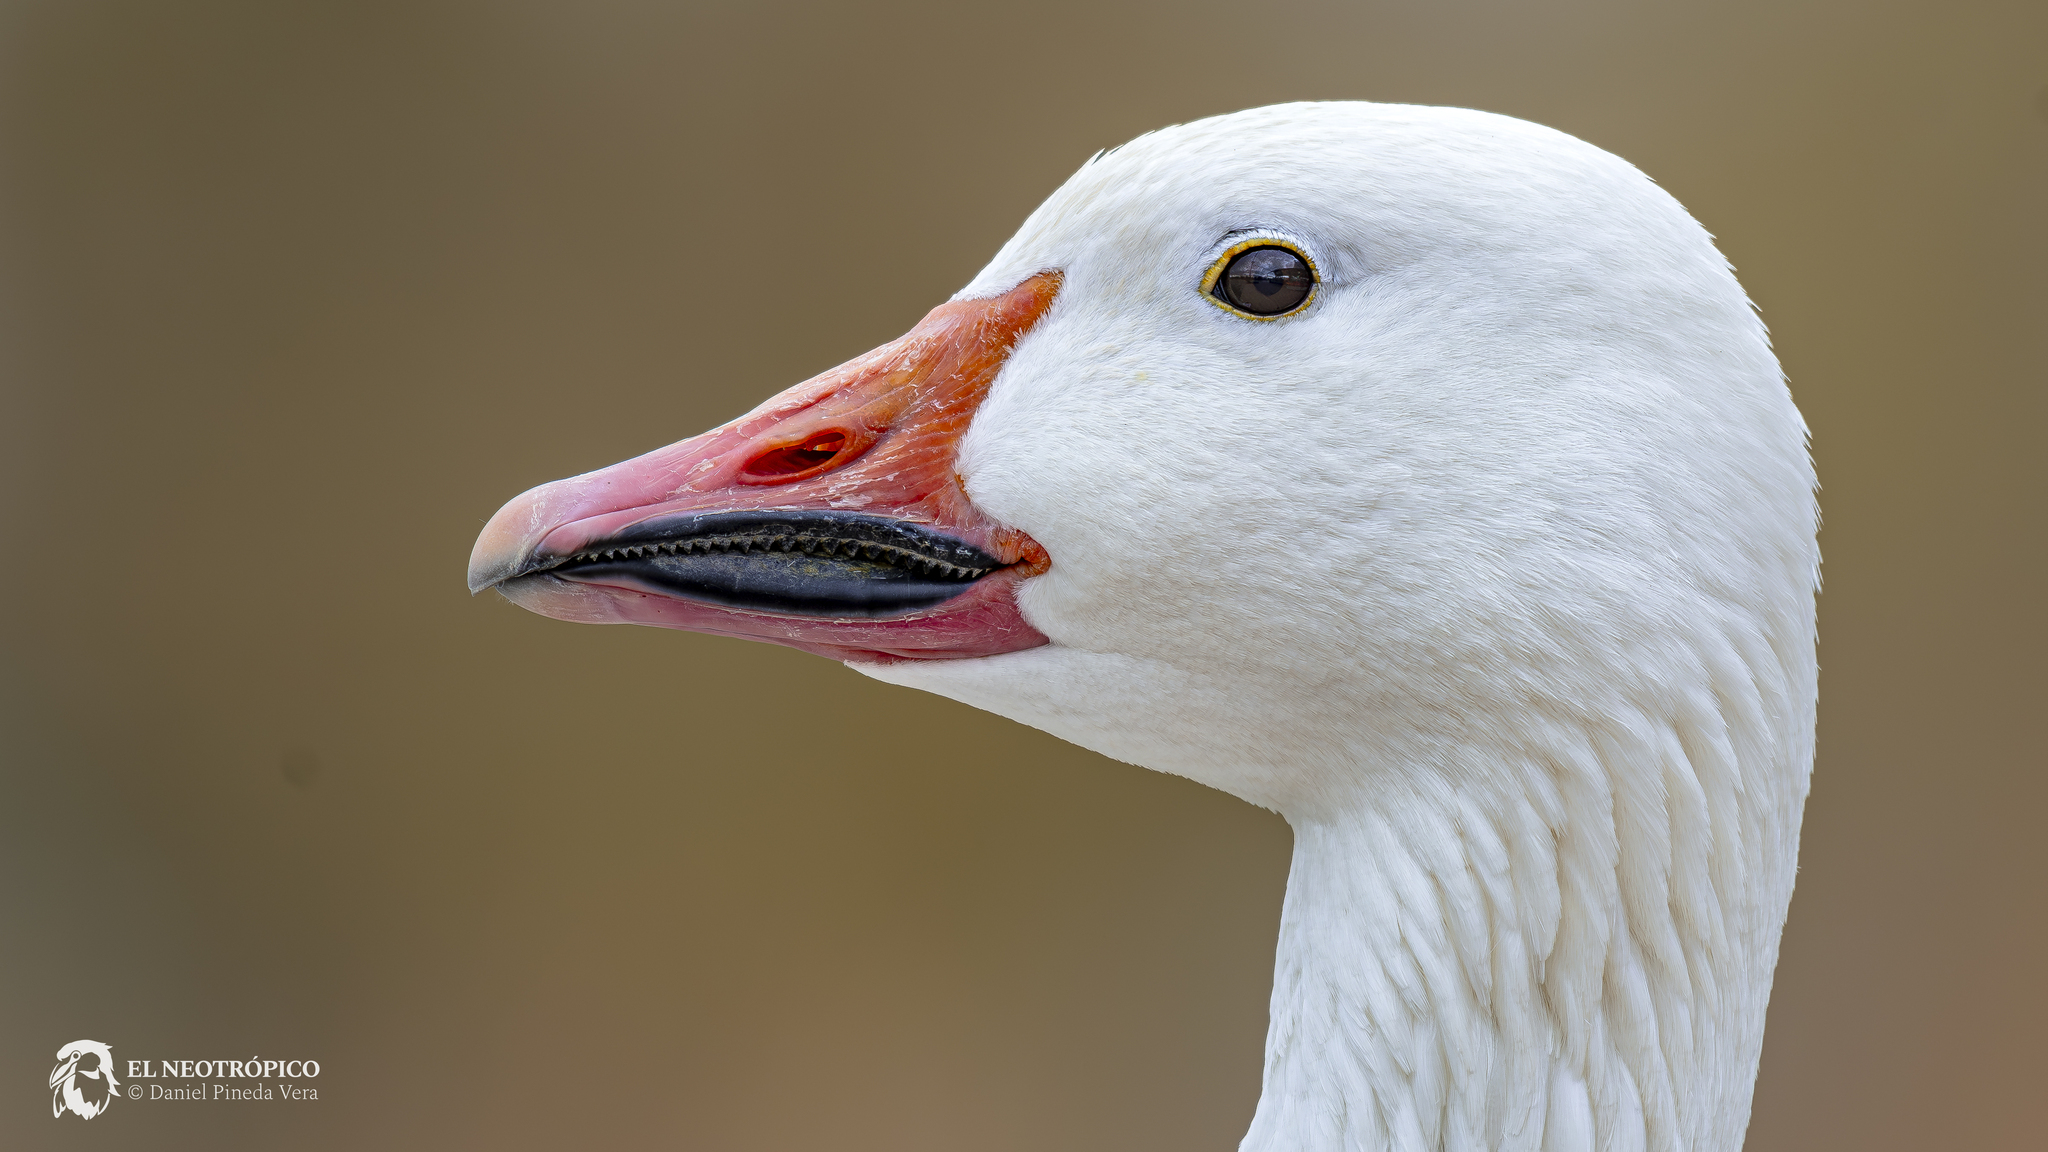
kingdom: Animalia
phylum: Chordata
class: Aves
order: Anseriformes
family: Anatidae
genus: Anser
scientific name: Anser caerulescens
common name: Snow goose
